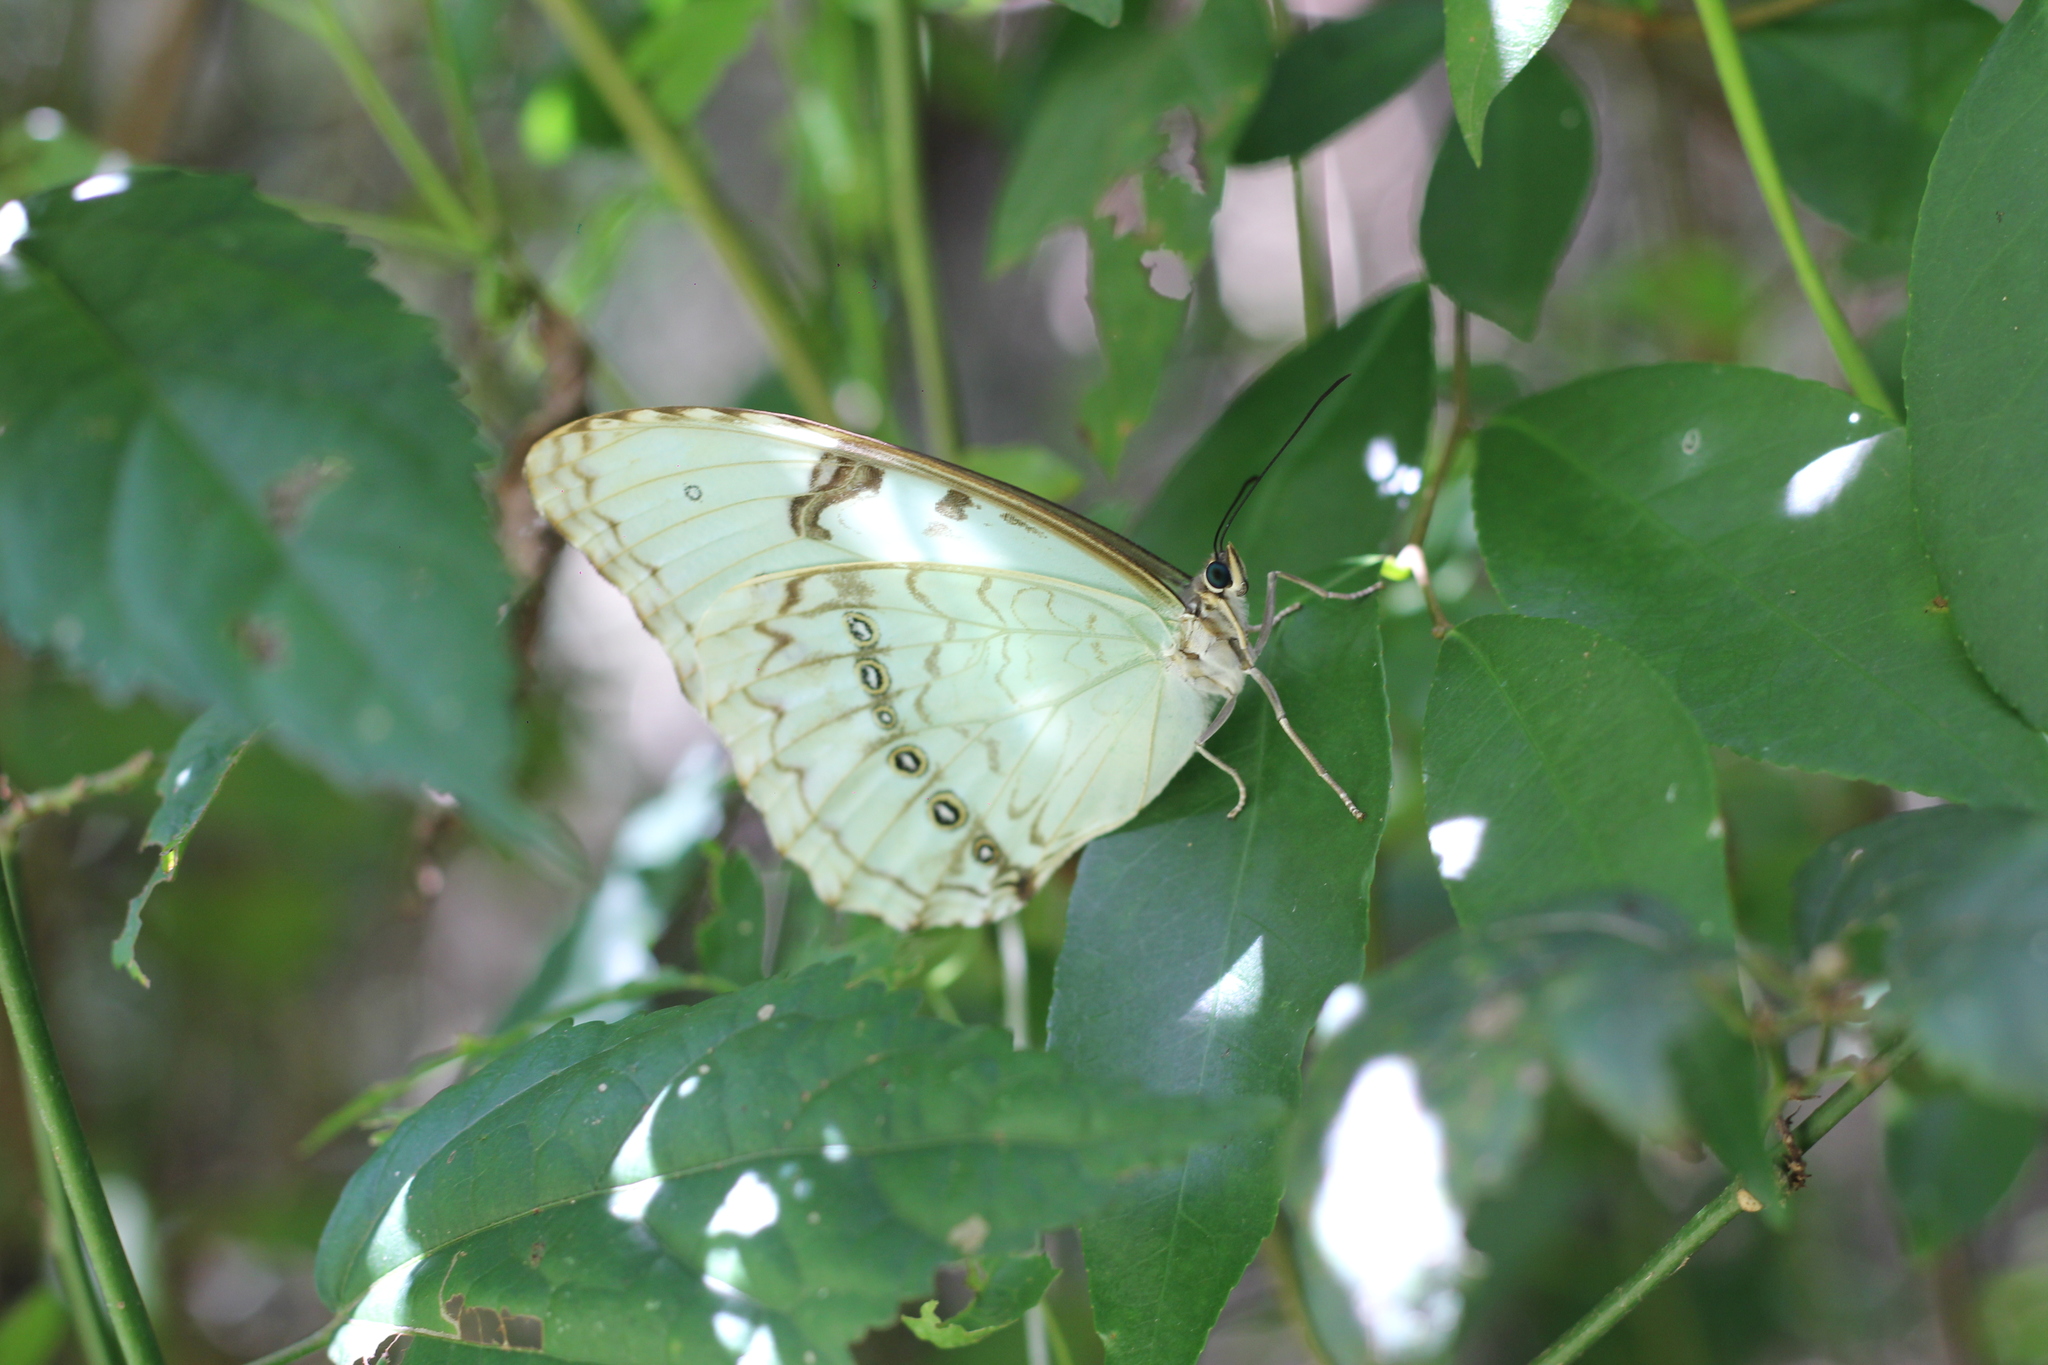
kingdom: Animalia
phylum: Arthropoda
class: Insecta
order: Lepidoptera
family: Nymphalidae
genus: Morpho
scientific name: Morpho epistrophus
